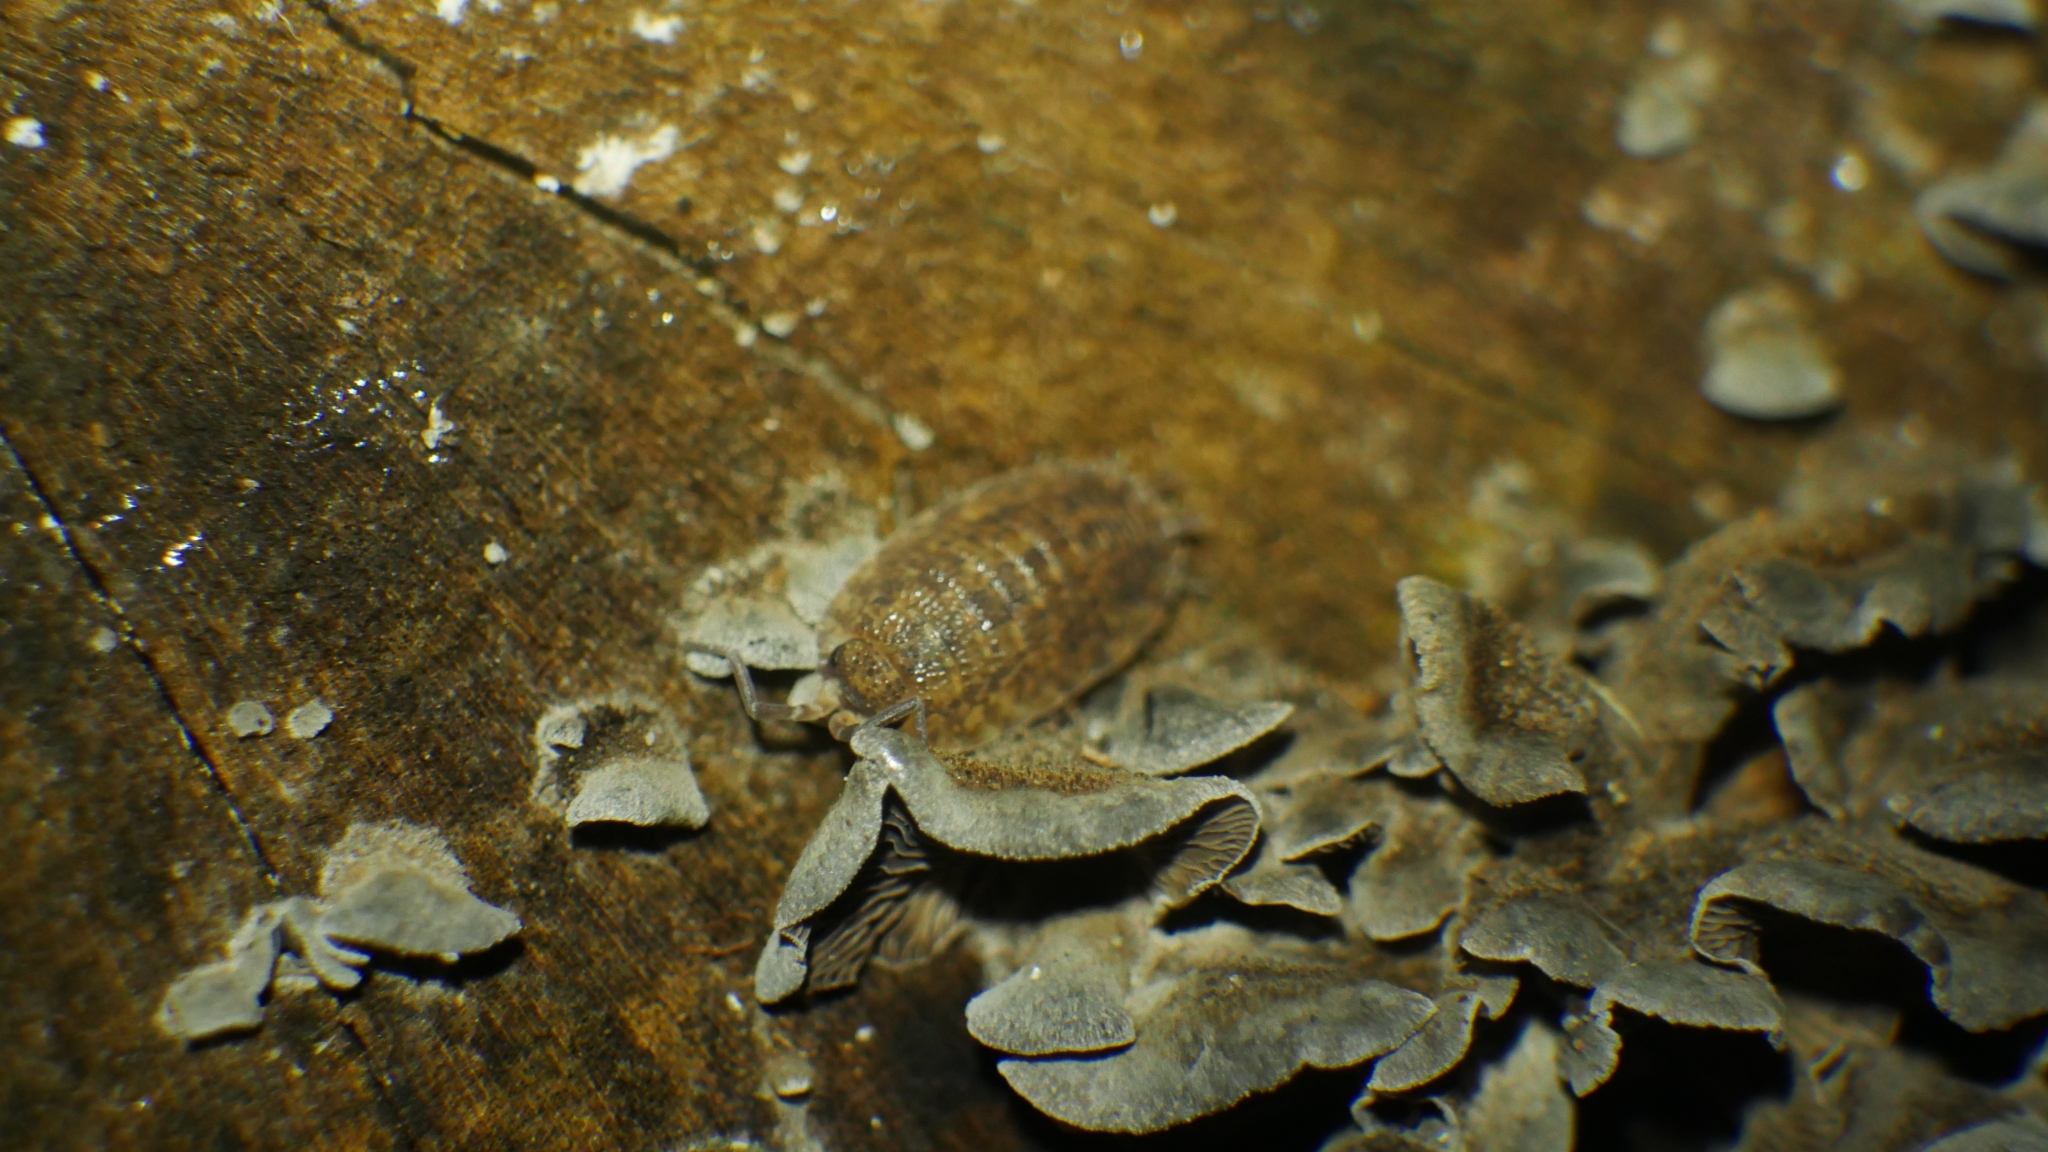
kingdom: Animalia
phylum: Arthropoda
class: Malacostraca
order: Isopoda
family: Porcellionidae
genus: Porcellio
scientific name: Porcellio scaber
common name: Common rough woodlouse
